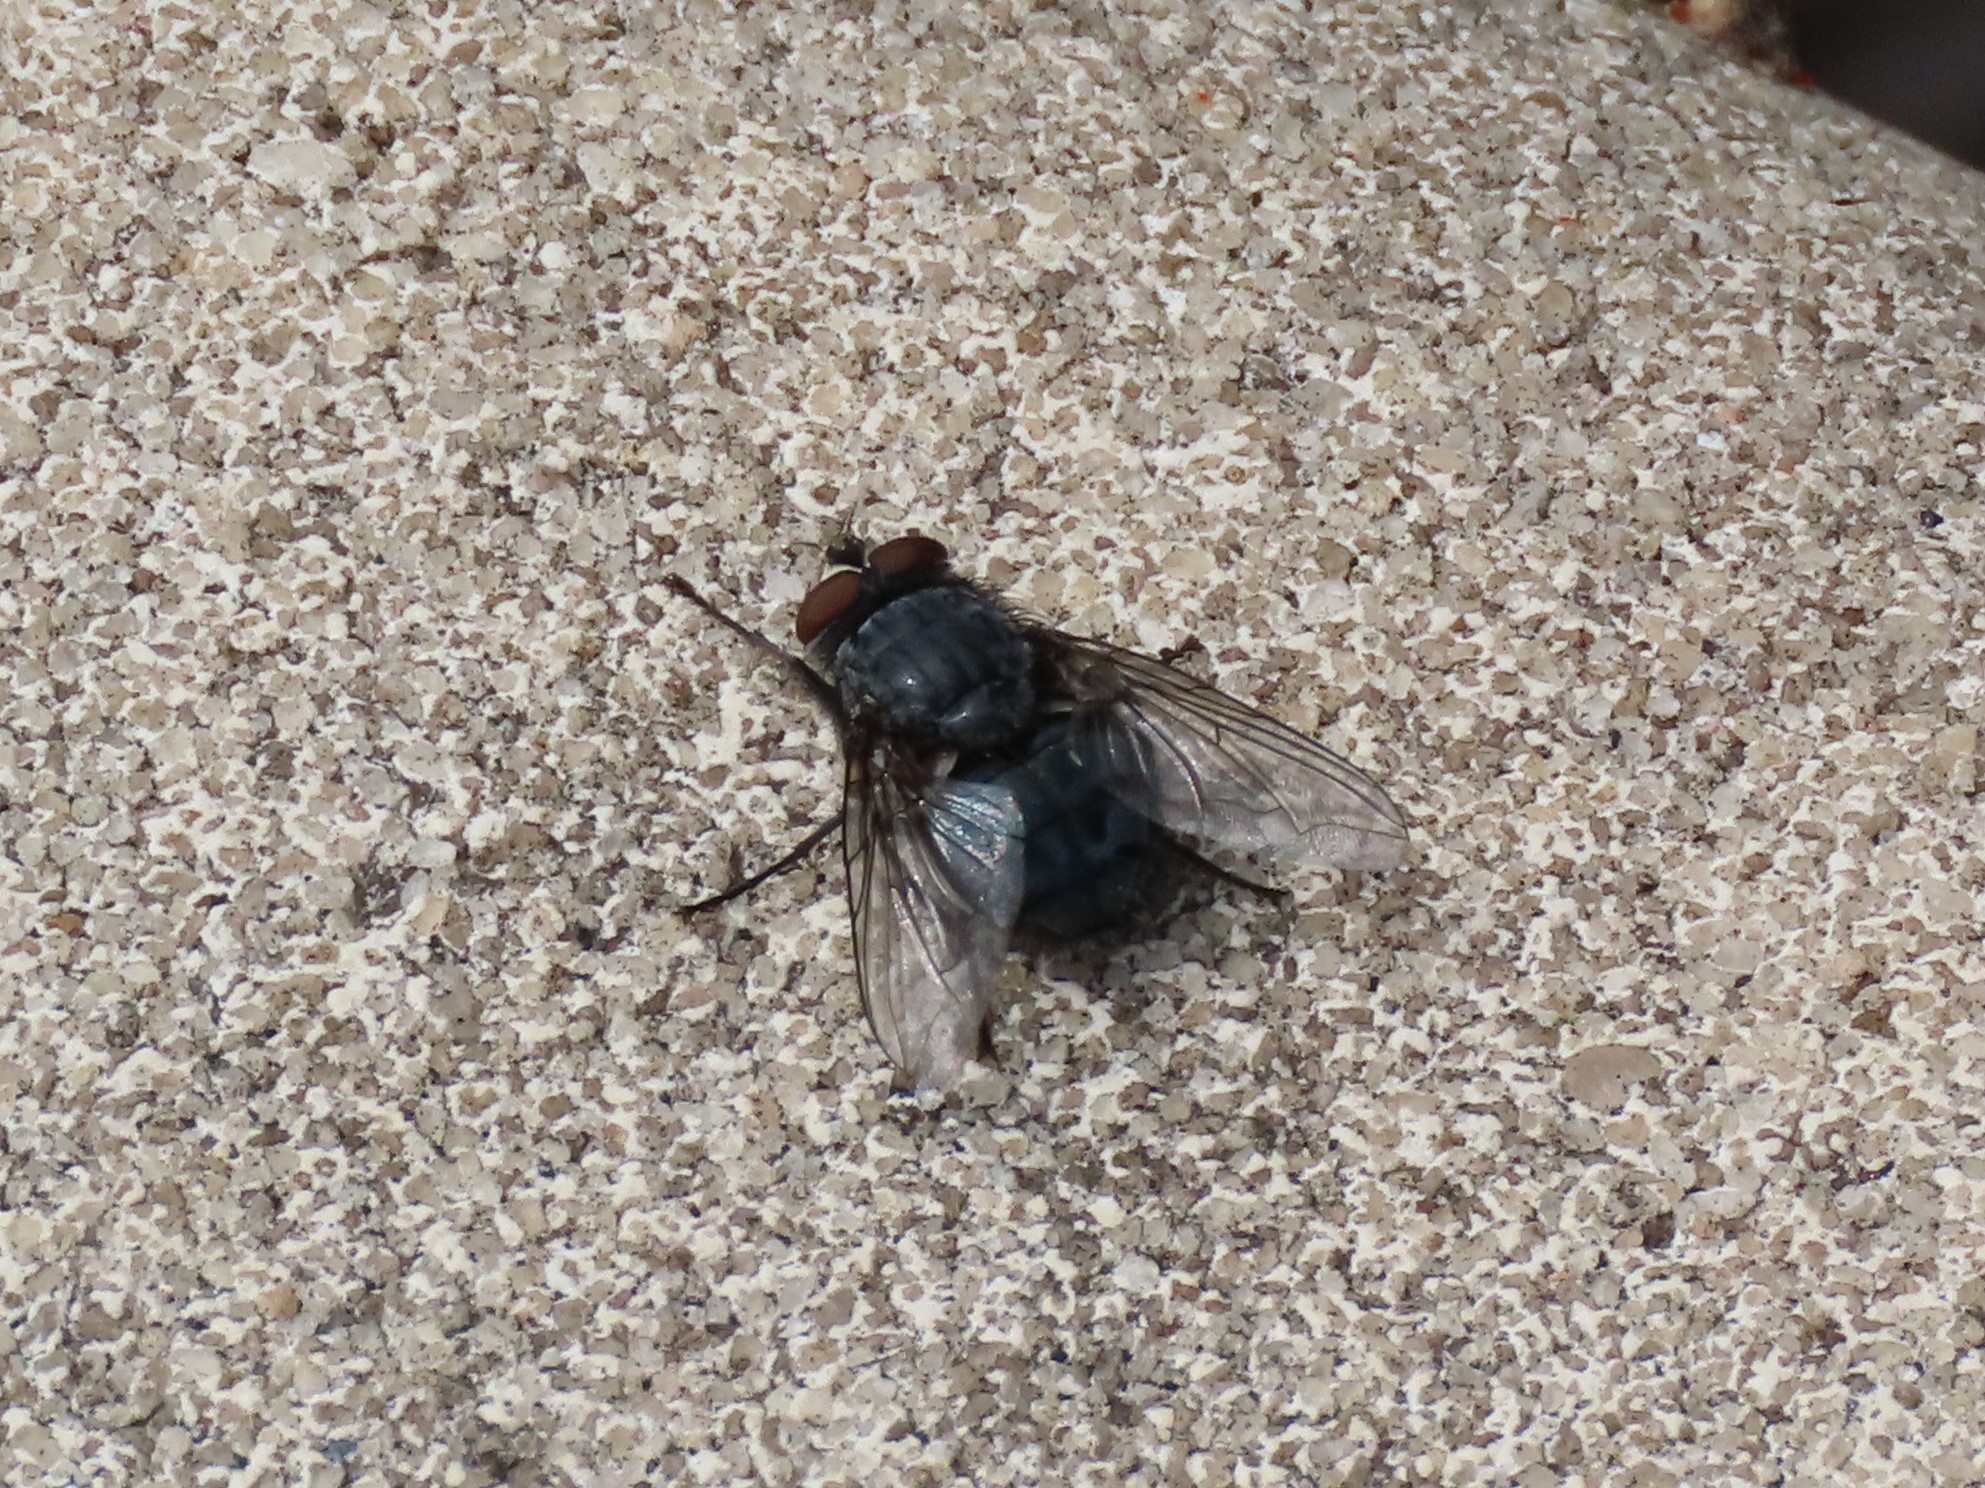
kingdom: Animalia
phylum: Arthropoda
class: Insecta
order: Diptera
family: Calliphoridae
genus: Calliphora
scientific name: Calliphora vicina
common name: Common blow flie
